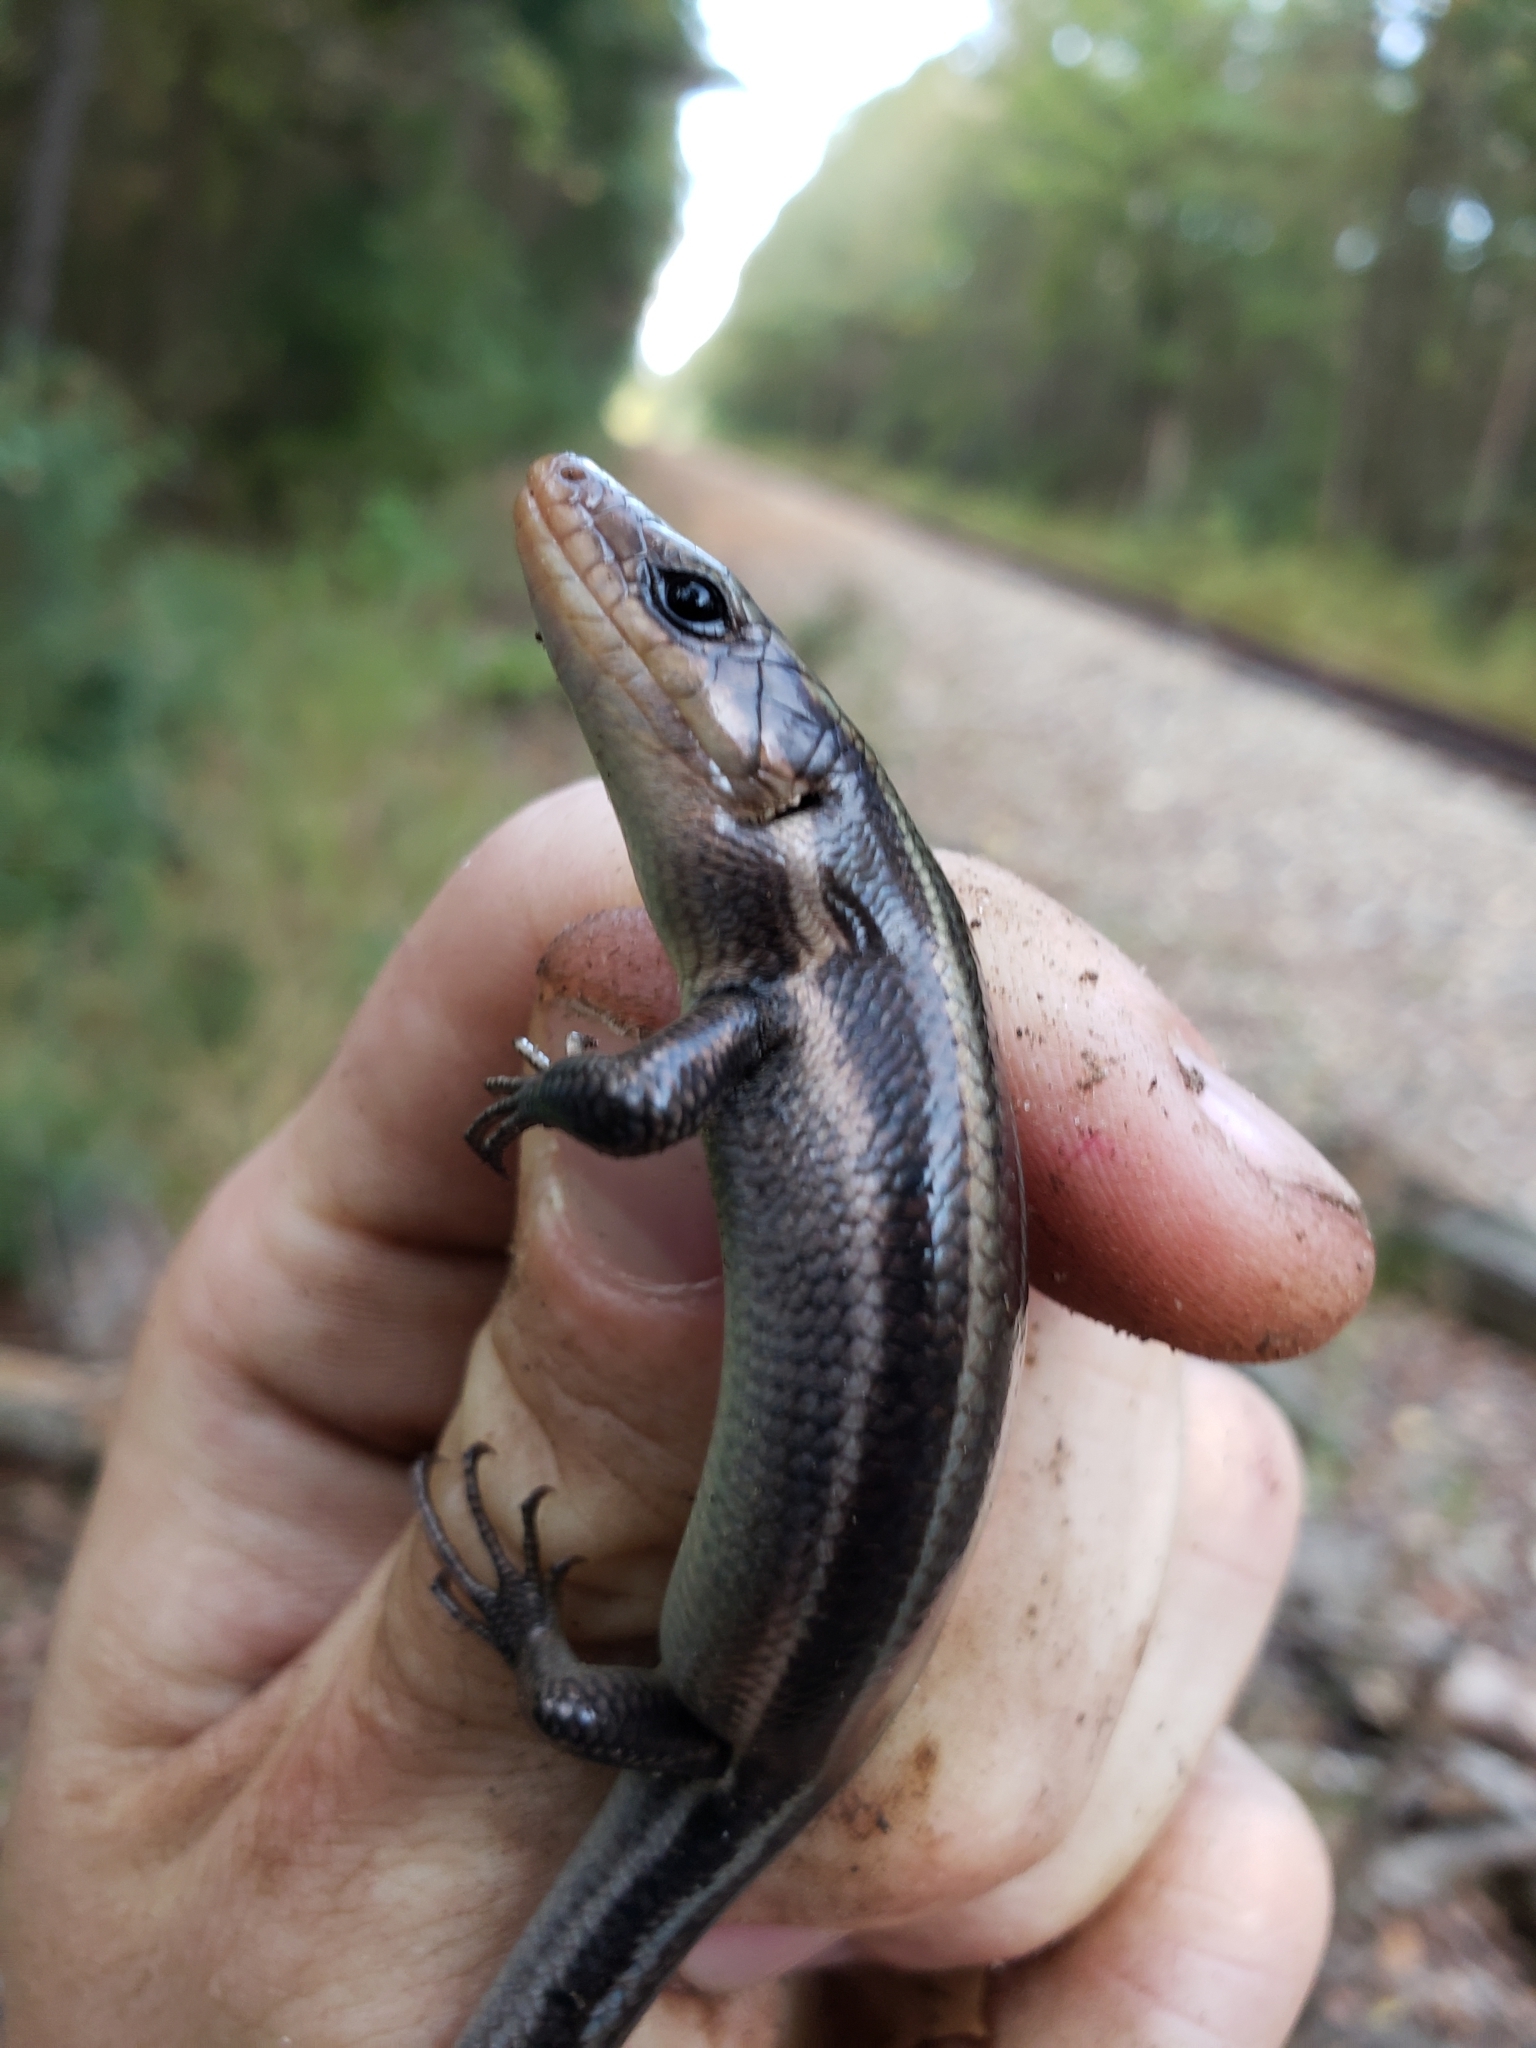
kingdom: Animalia
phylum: Chordata
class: Squamata
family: Scincidae
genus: Plestiodon
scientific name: Plestiodon fasciatus
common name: Five-lined skink
